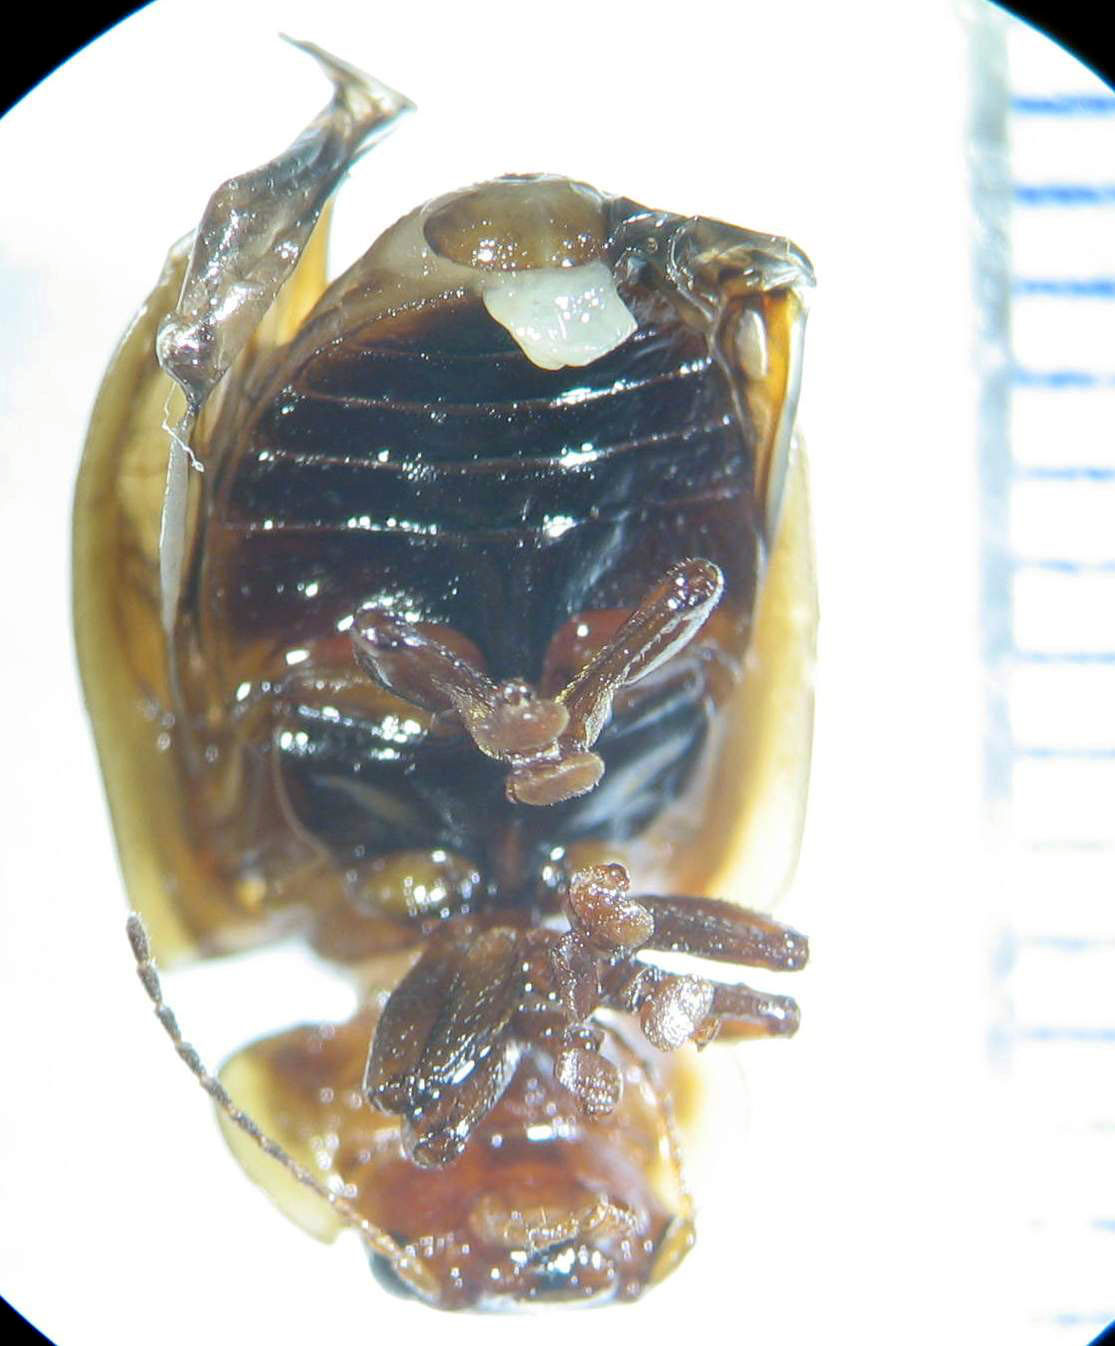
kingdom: Animalia
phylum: Arthropoda
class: Insecta
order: Coleoptera
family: Chrysomelidae
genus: Paropsisterna
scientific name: Paropsisterna
